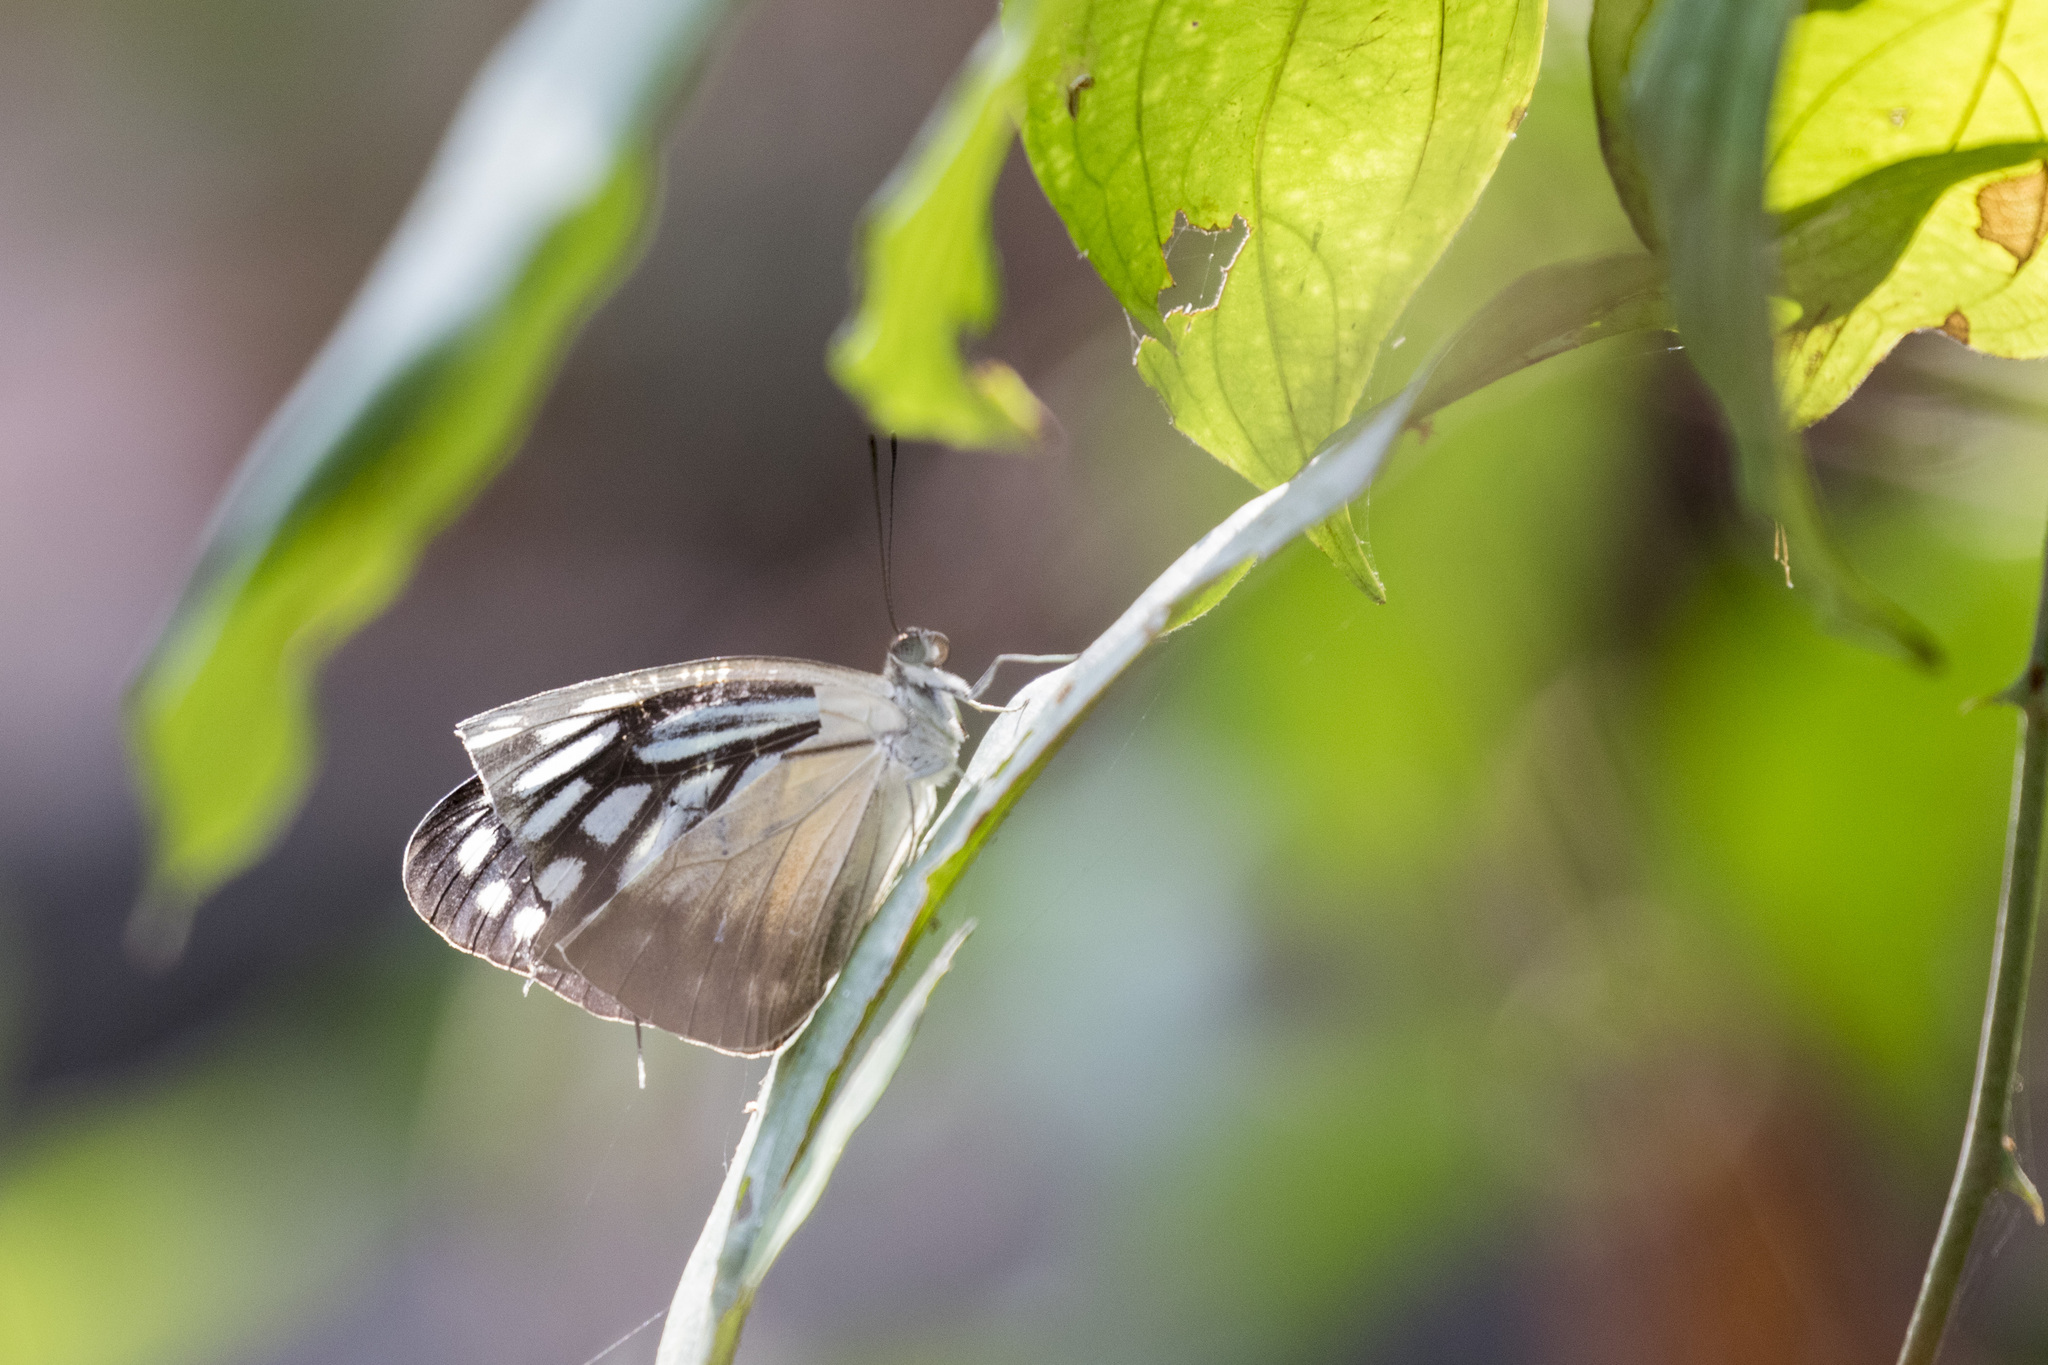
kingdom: Animalia
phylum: Arthropoda
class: Insecta
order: Lepidoptera
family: Pieridae
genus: Pareronia
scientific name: Pareronia hippia
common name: Indian wanderer
